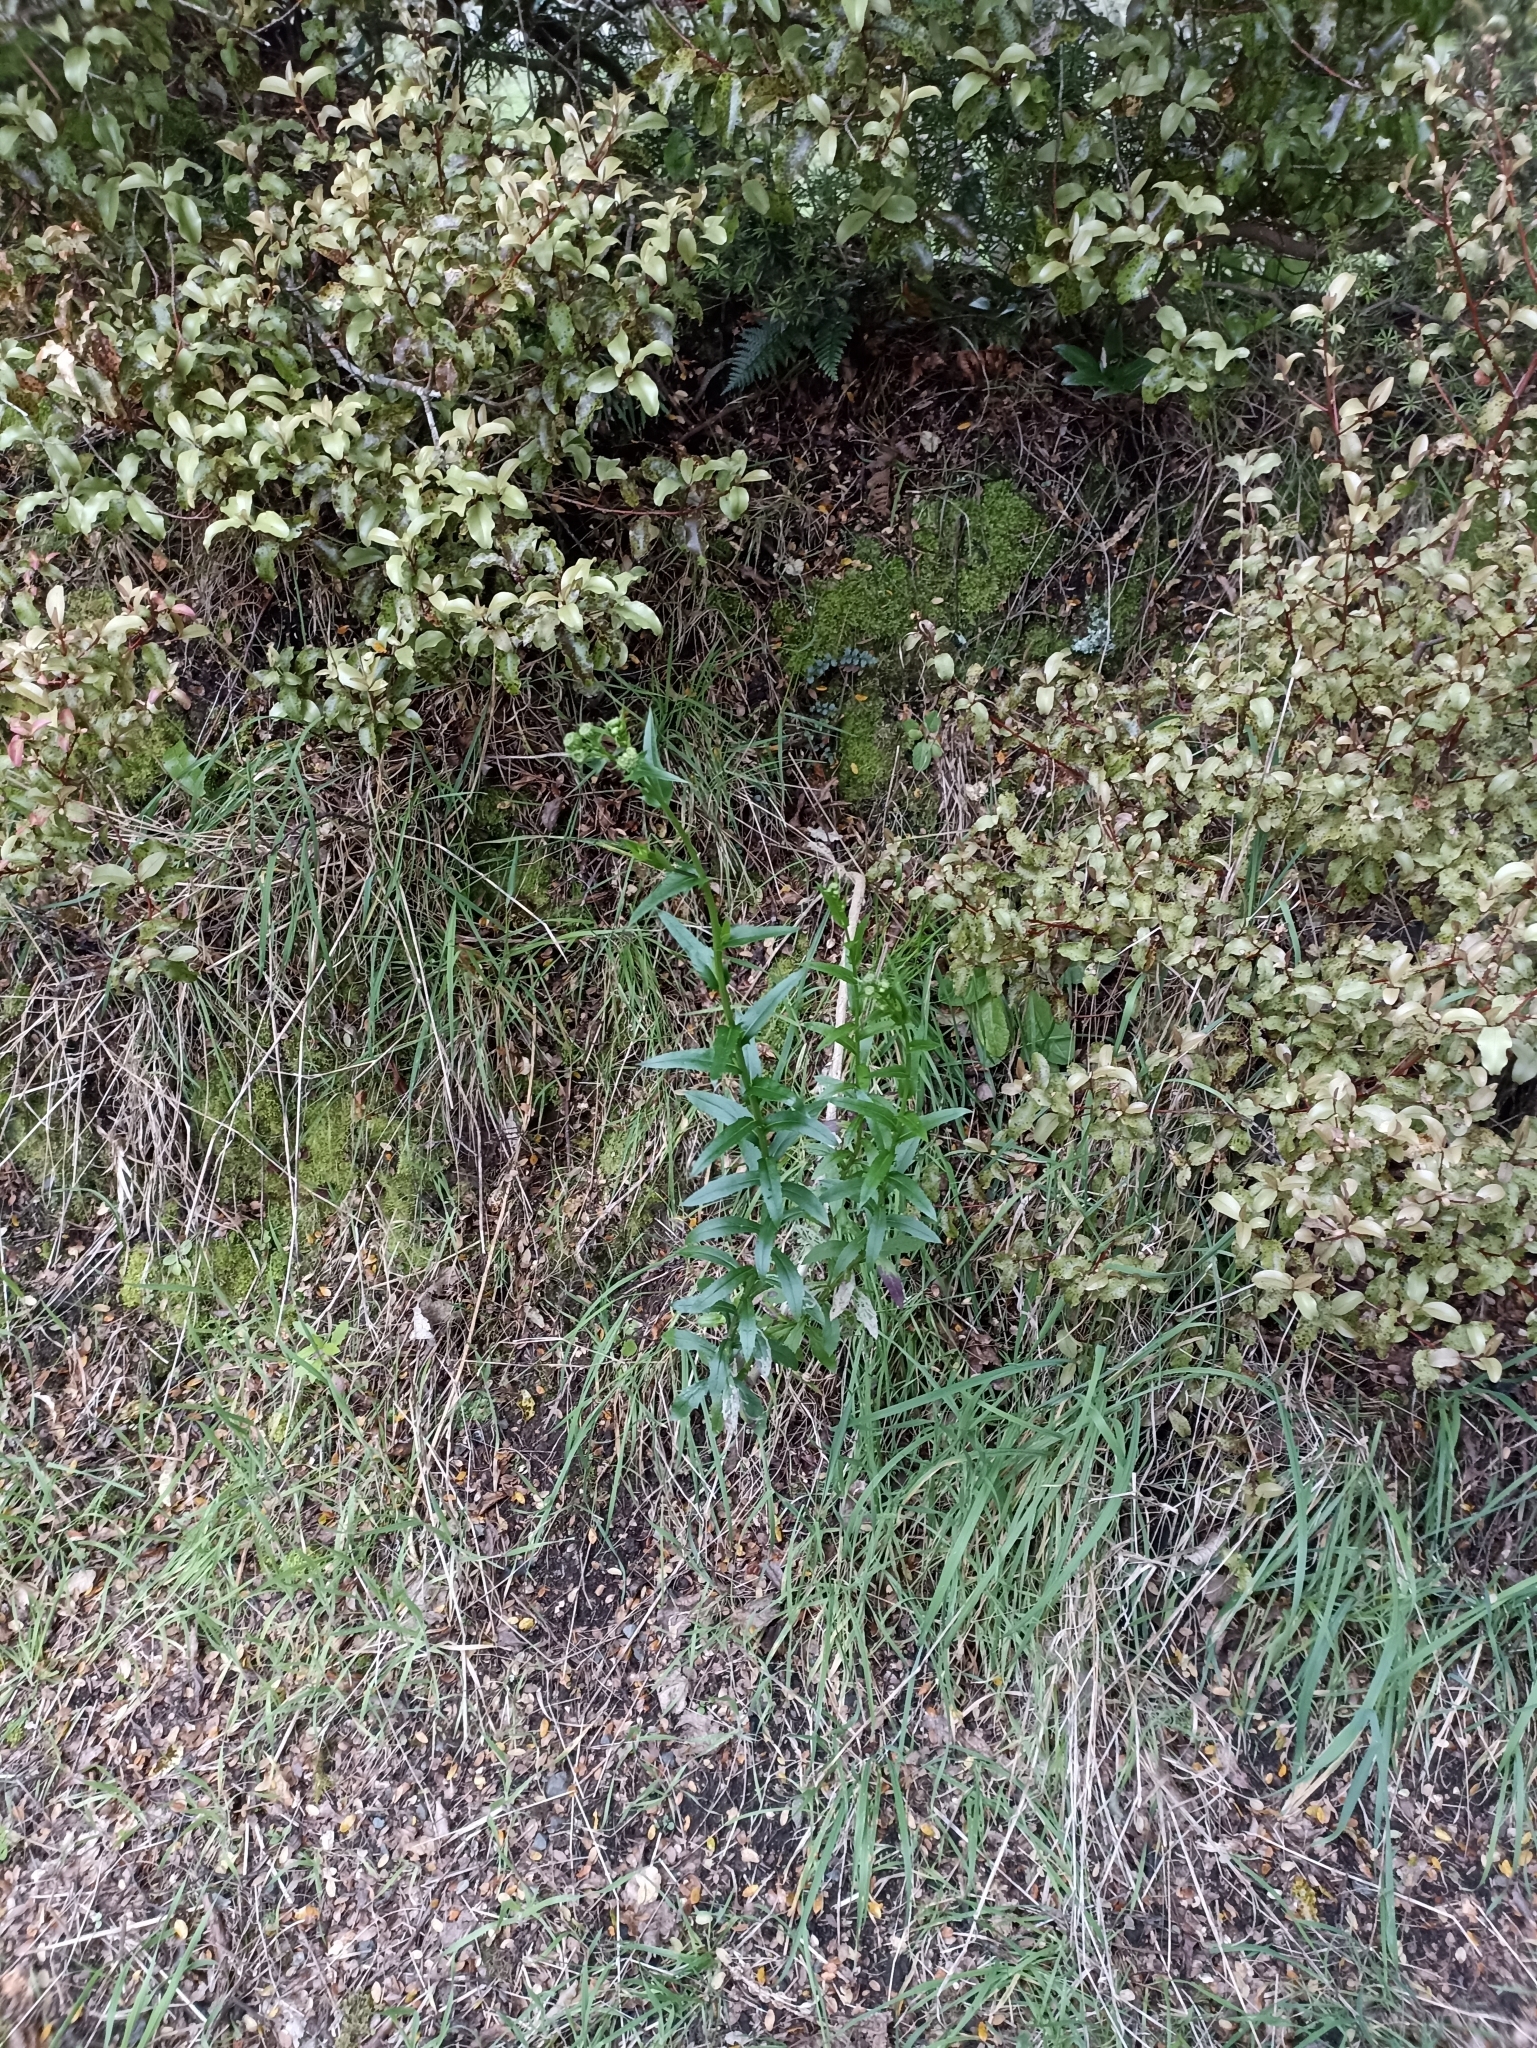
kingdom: Plantae
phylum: Tracheophyta
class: Magnoliopsida
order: Asterales
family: Asteraceae
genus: Senecio
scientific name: Senecio glastifolius
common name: Woad-leaved ragwort
